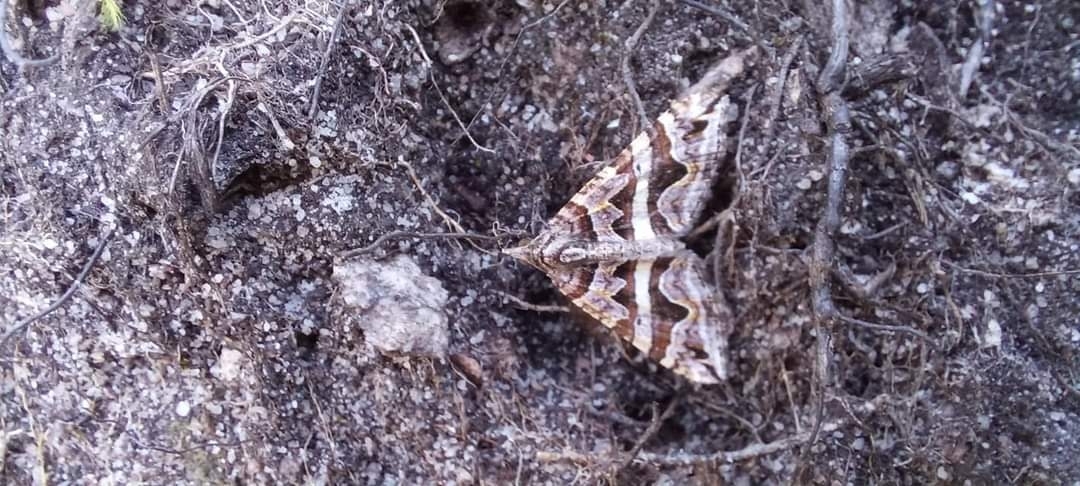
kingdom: Animalia
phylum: Arthropoda
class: Insecta
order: Lepidoptera
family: Geometridae
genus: Scotopteryx
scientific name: Scotopteryx deversa
